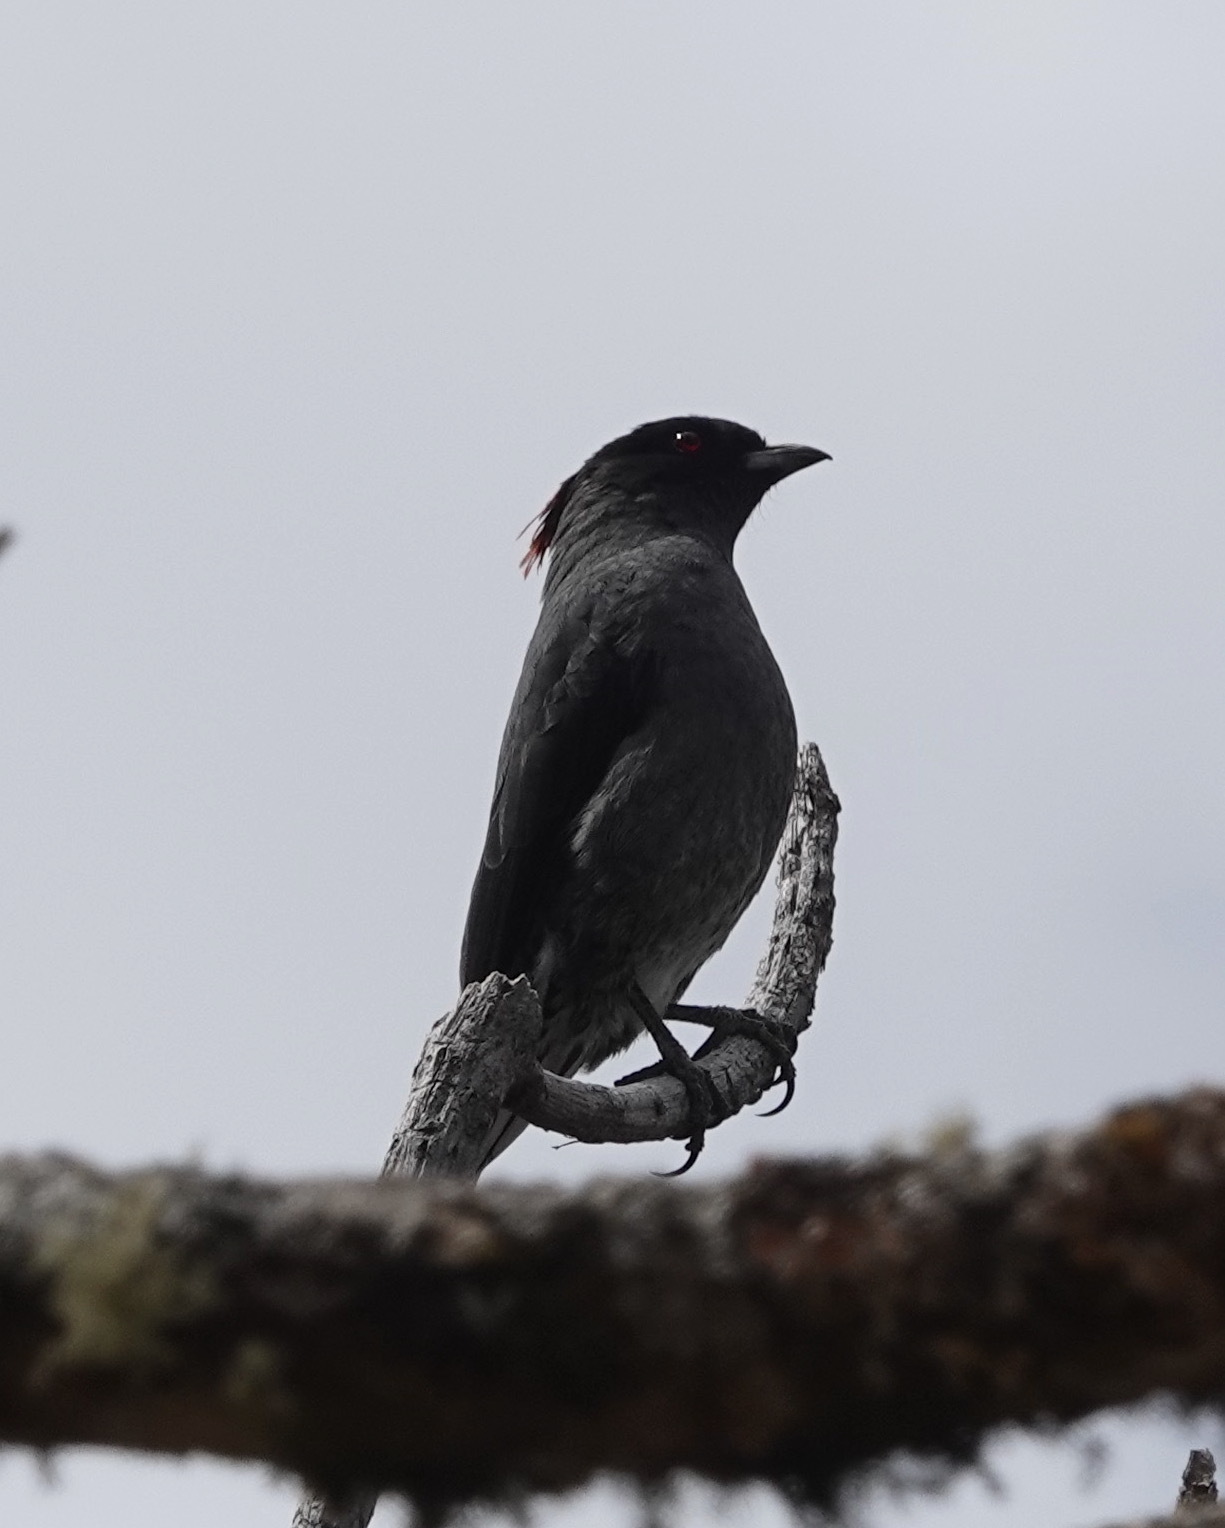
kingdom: Animalia
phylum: Chordata
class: Aves
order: Passeriformes
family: Cotingidae
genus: Ampelion
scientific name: Ampelion rubrocristatus
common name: Red-crested cotinga
